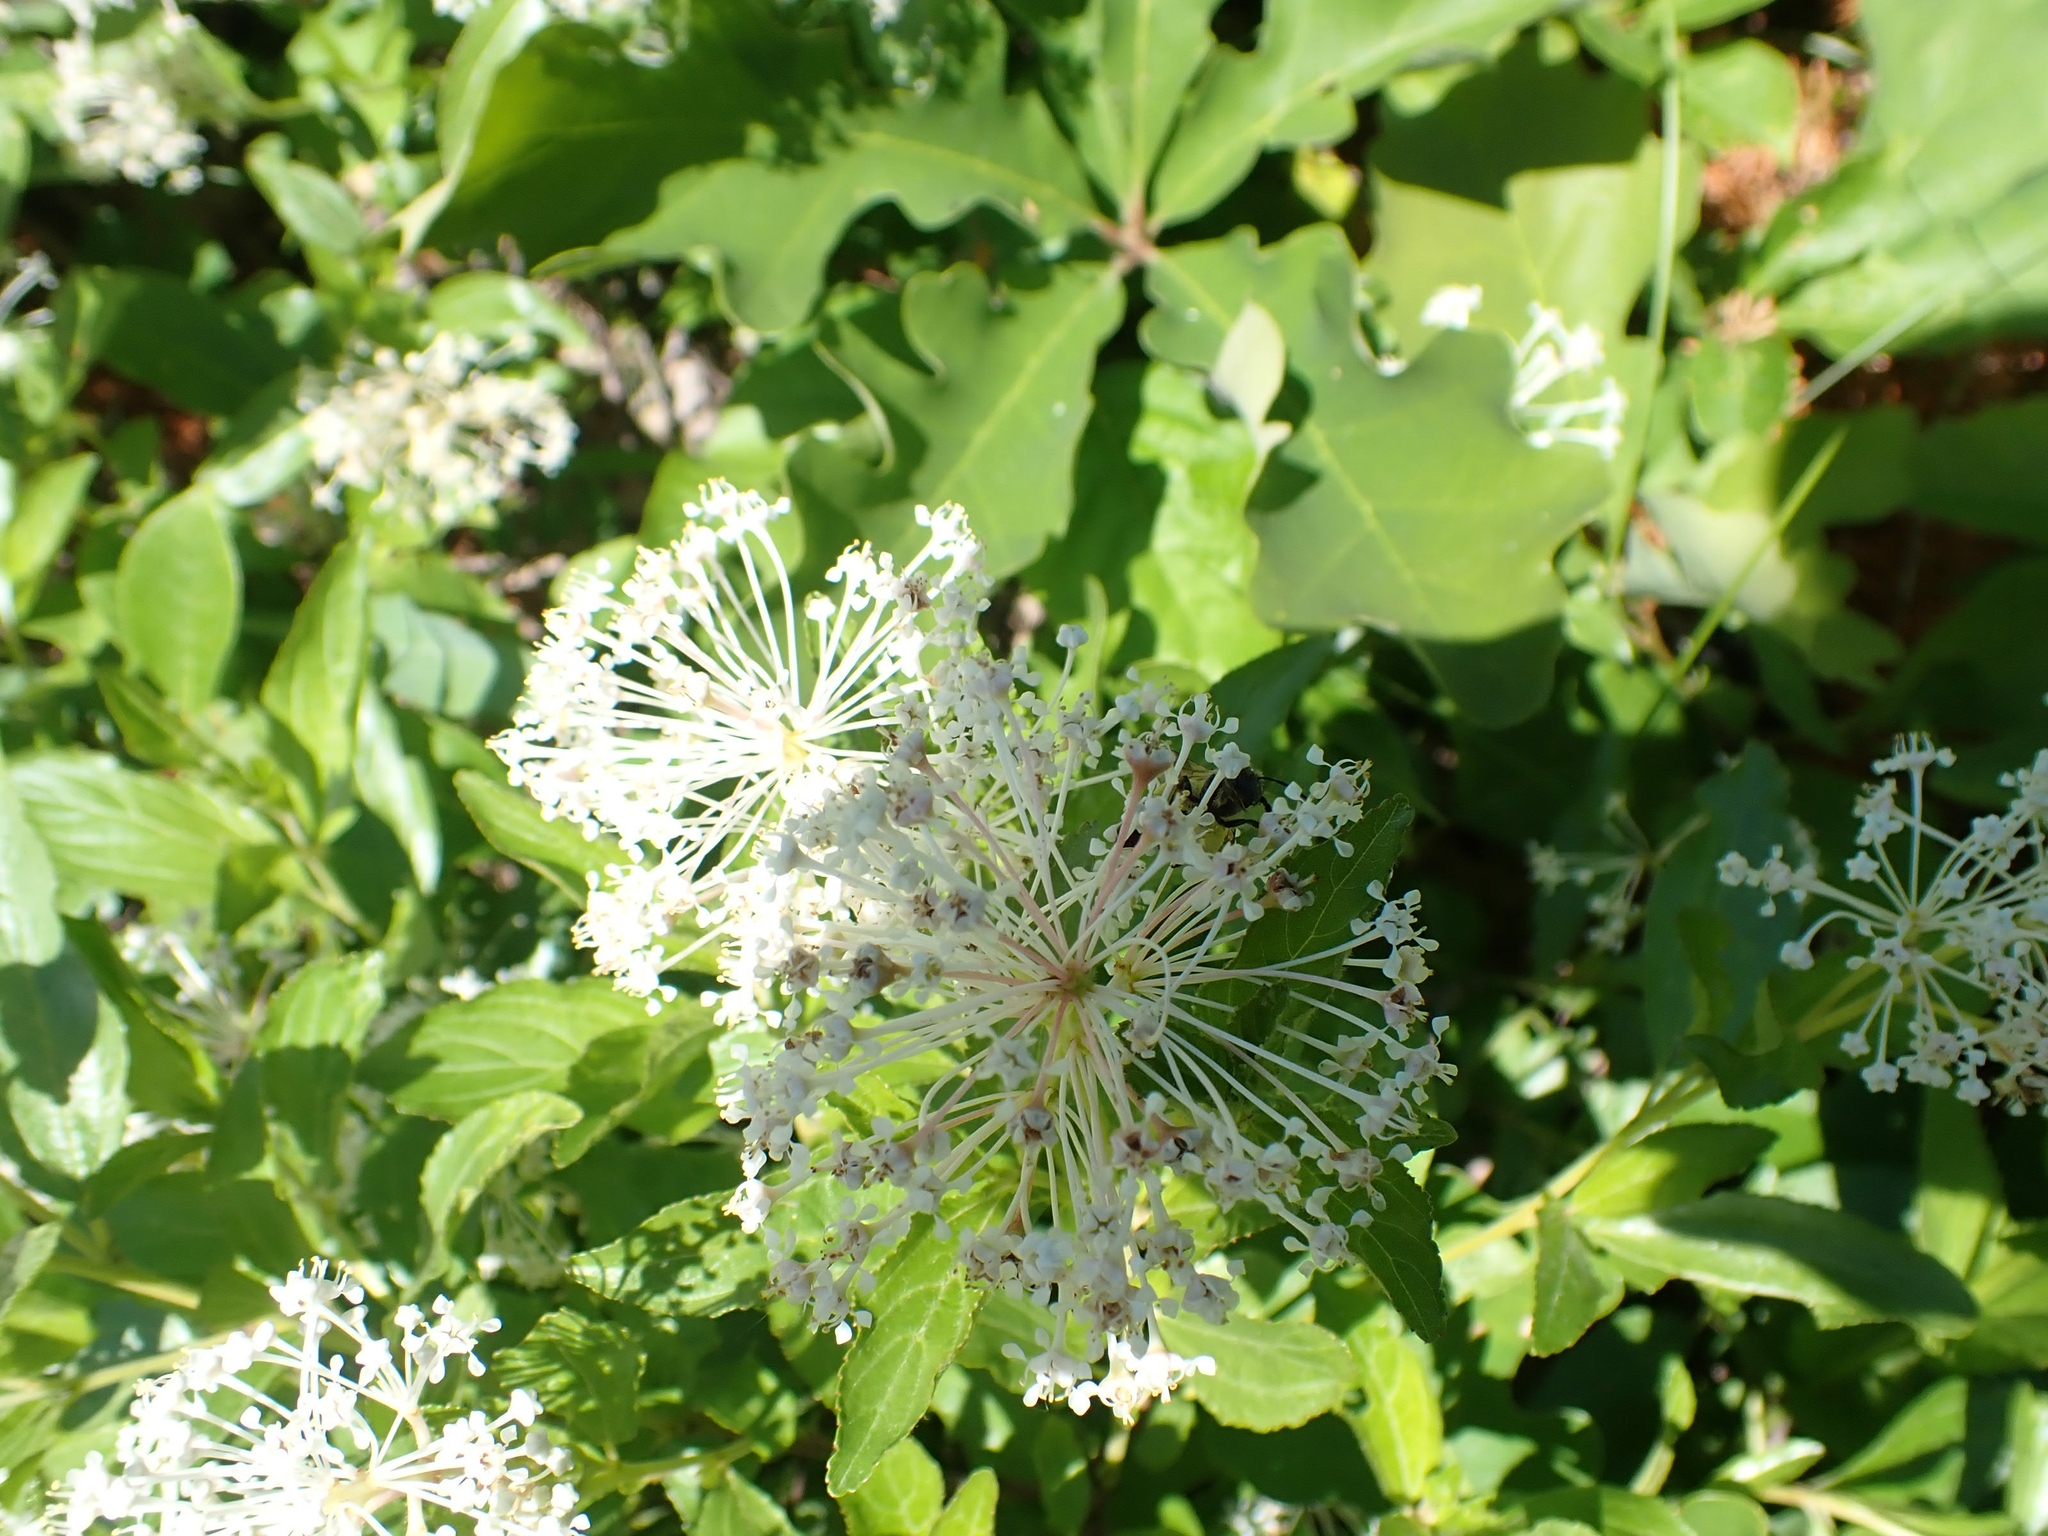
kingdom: Plantae
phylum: Tracheophyta
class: Magnoliopsida
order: Rosales
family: Rhamnaceae
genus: Ceanothus
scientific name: Ceanothus herbaceus
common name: Inland ceanothus
